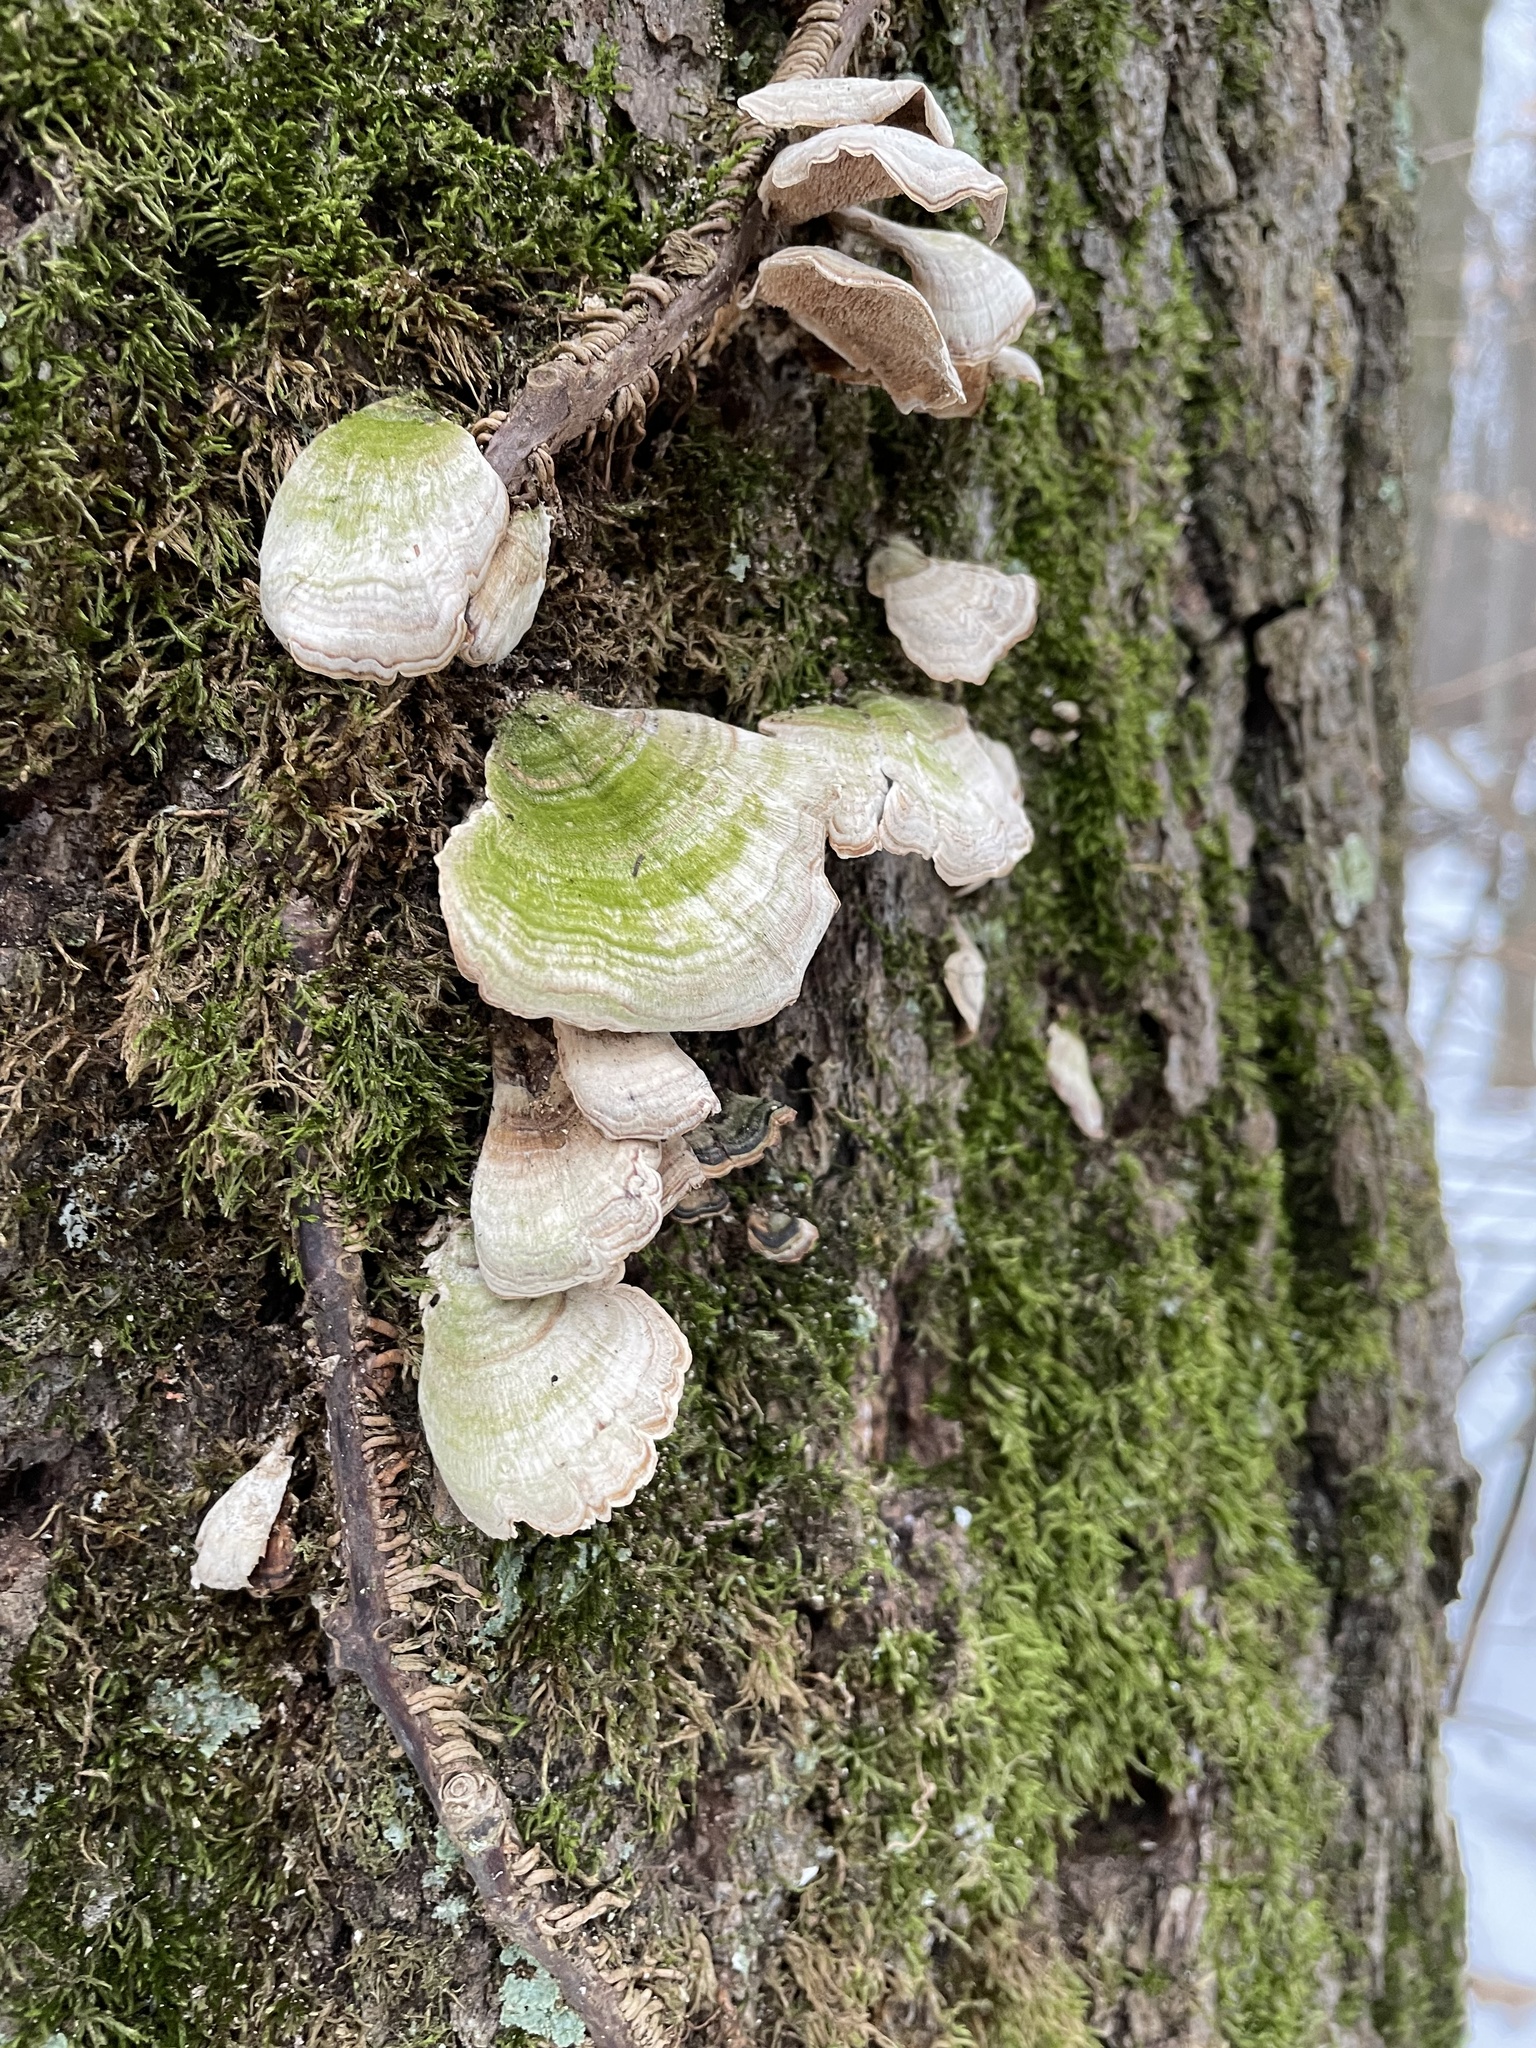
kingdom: Fungi
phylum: Basidiomycota
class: Agaricomycetes
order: Hymenochaetales
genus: Trichaptum
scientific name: Trichaptum biforme
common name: Violet-toothed polypore
